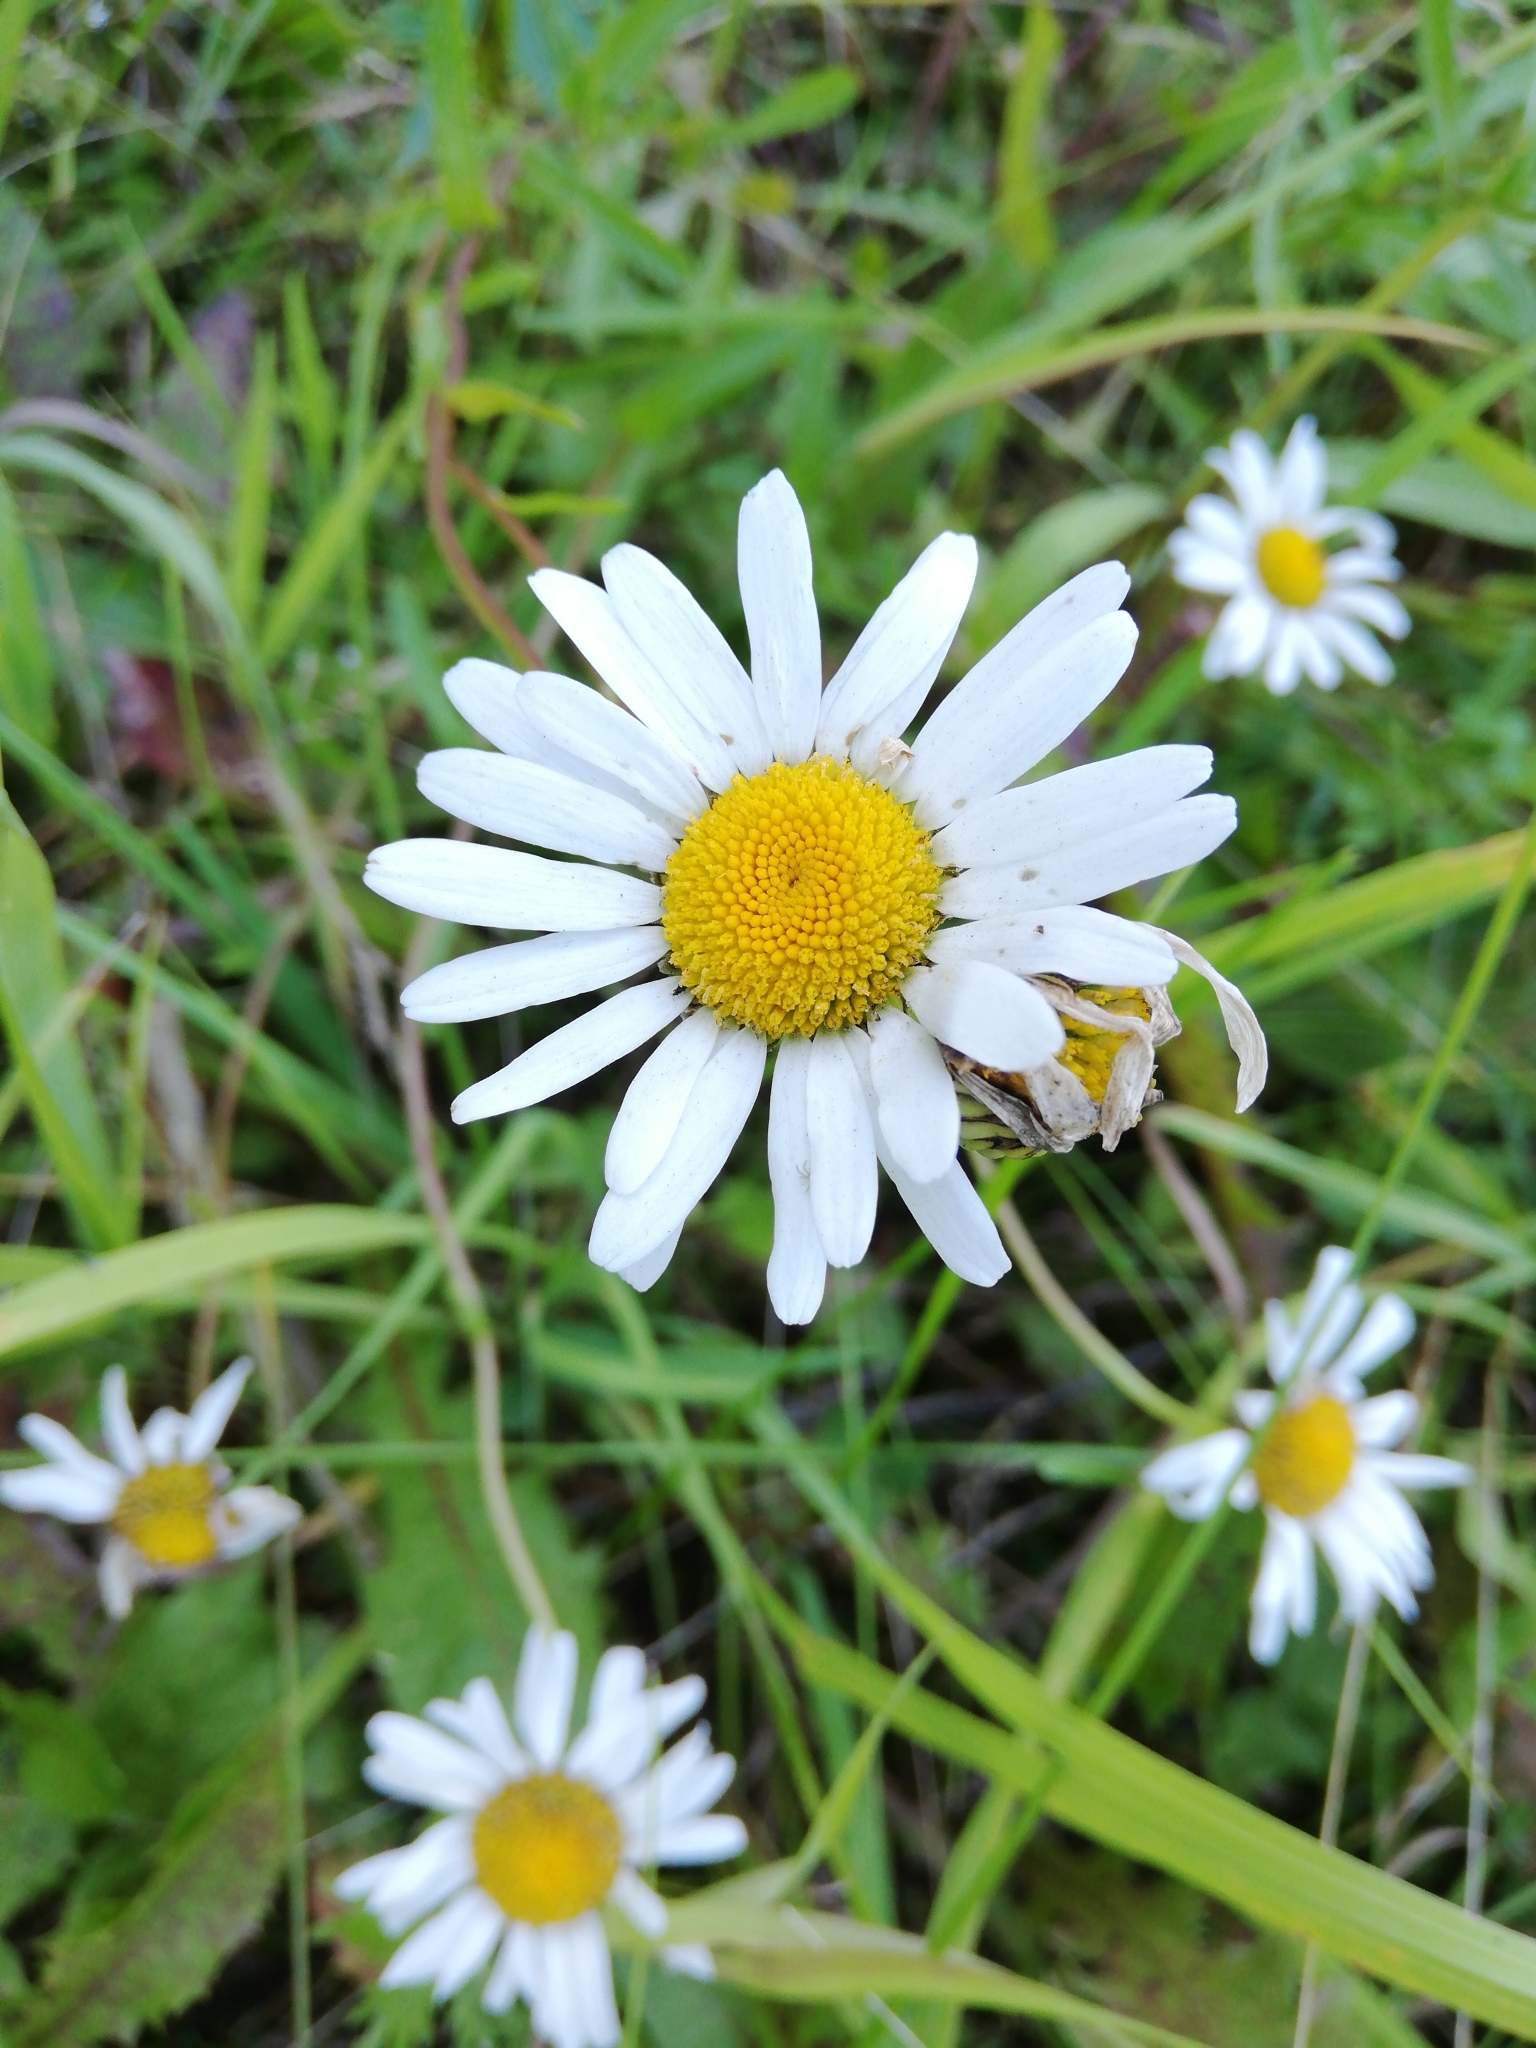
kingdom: Plantae
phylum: Tracheophyta
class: Magnoliopsida
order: Asterales
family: Asteraceae
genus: Leucanthemum
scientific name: Leucanthemum vulgare
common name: Oxeye daisy
